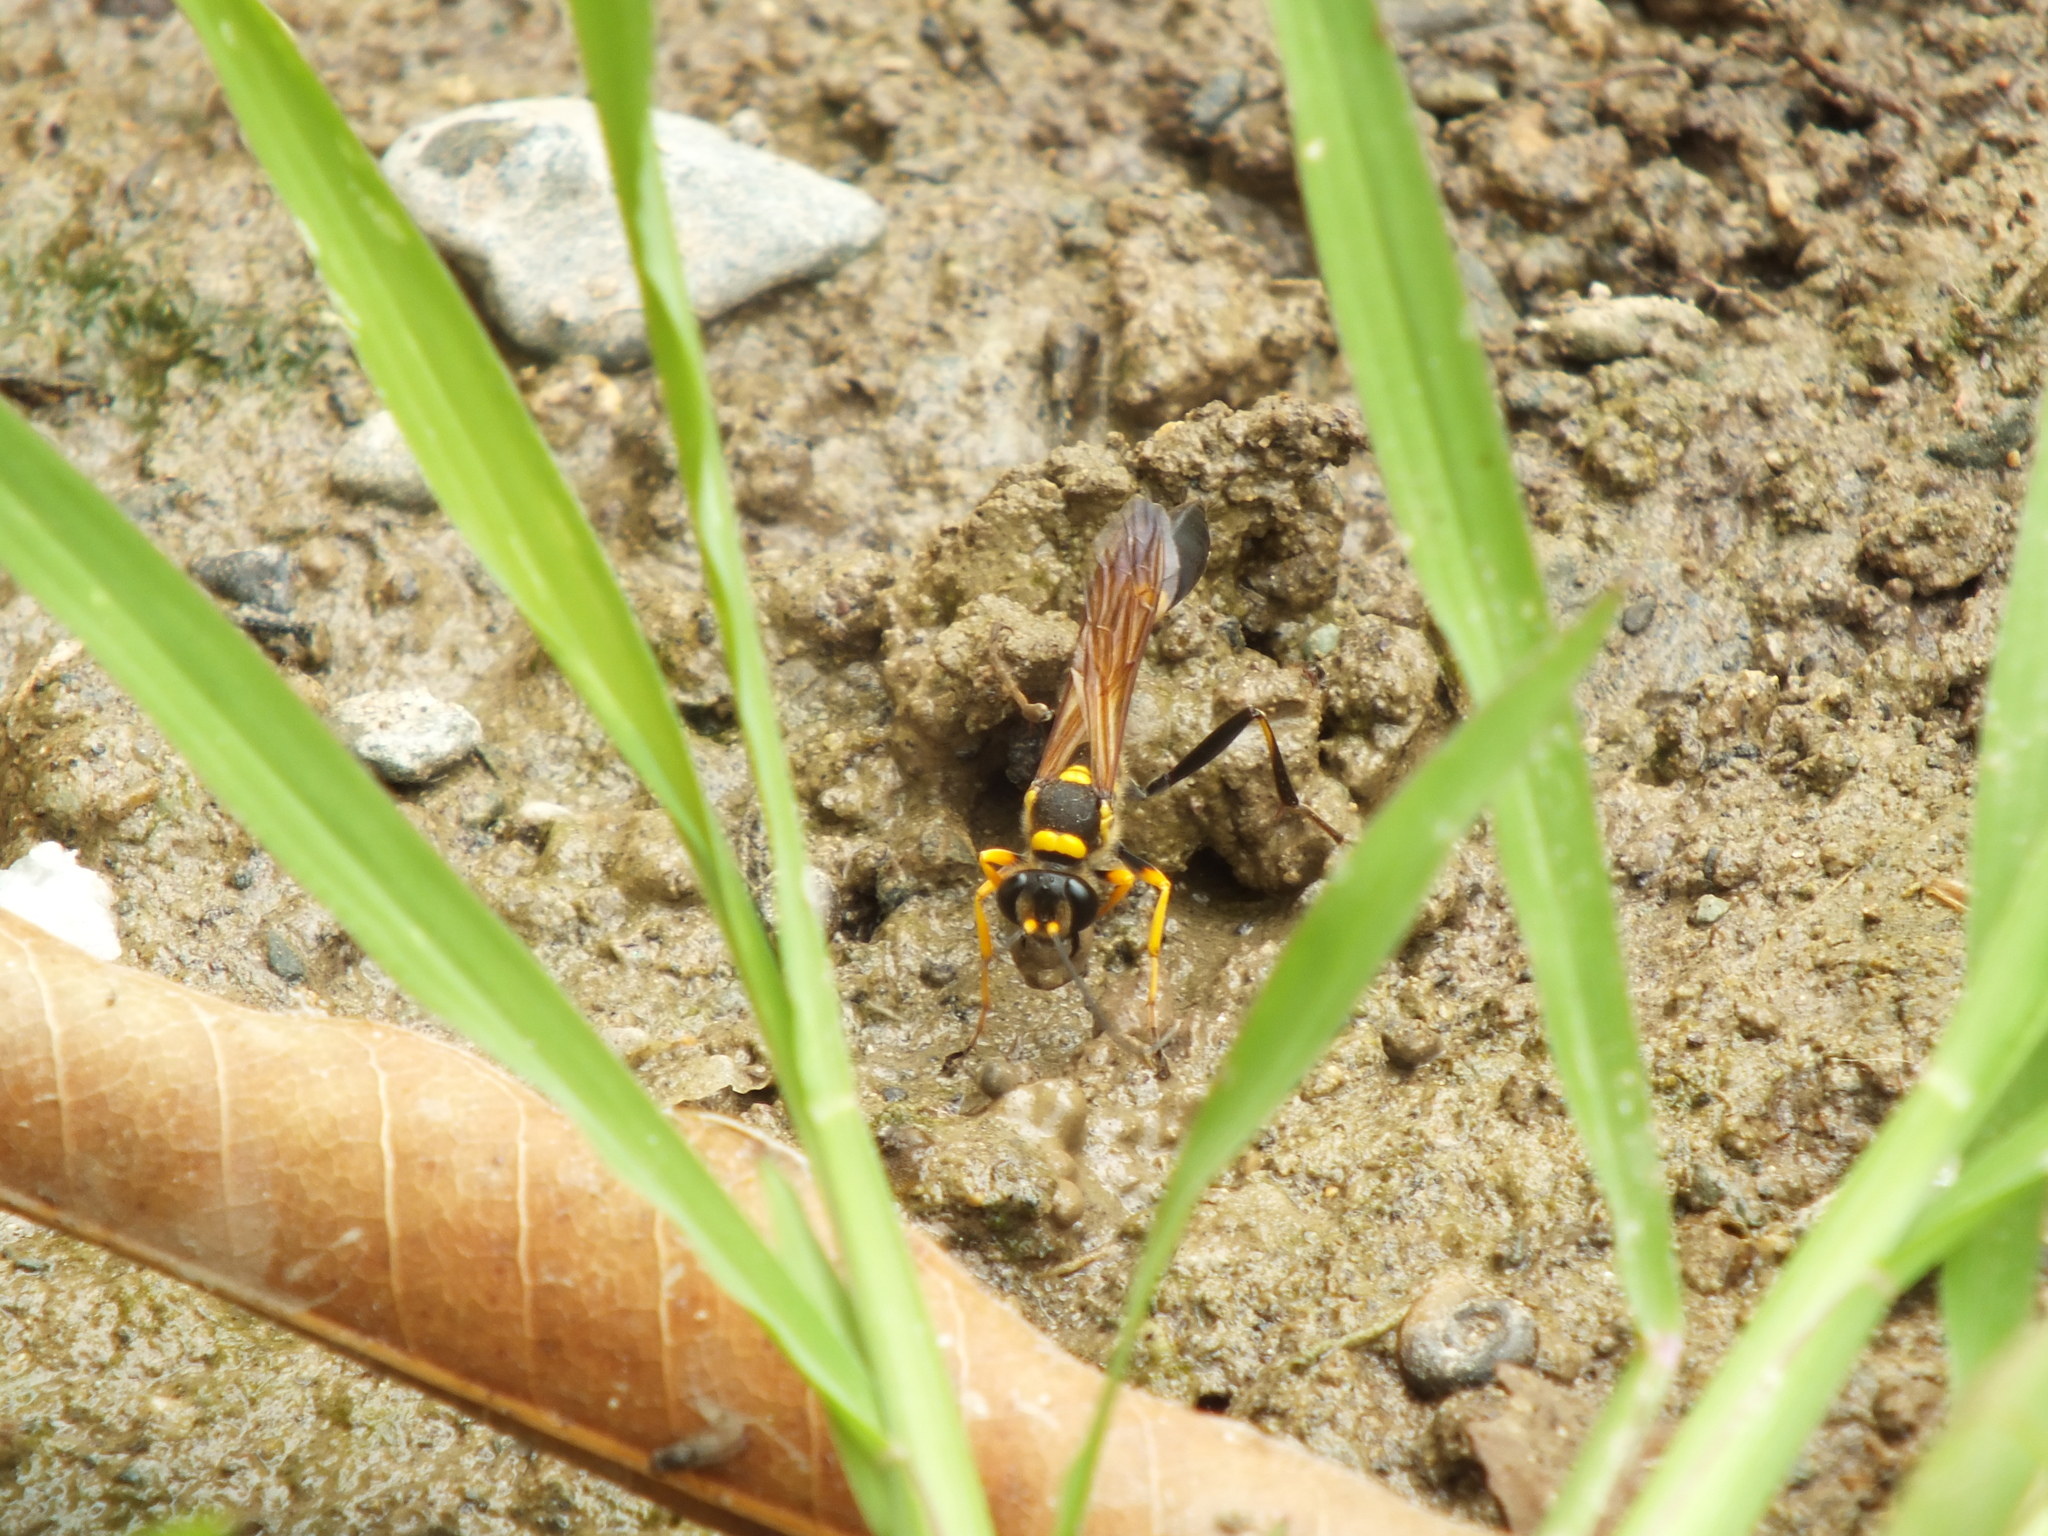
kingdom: Animalia
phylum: Arthropoda
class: Insecta
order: Hymenoptera
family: Sphecidae
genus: Sceliphron
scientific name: Sceliphron assimile
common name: Clayman's mud dauber
